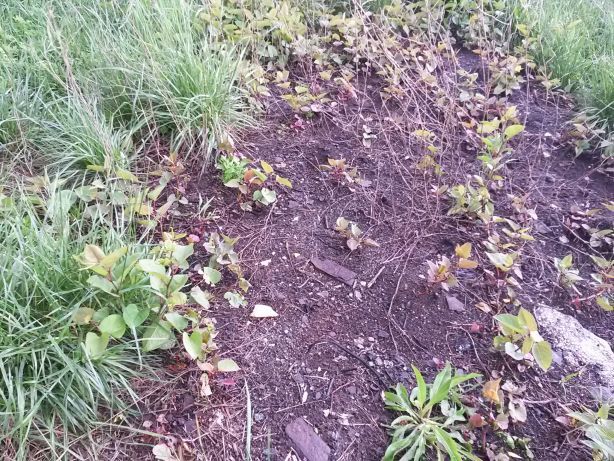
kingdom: Plantae
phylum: Tracheophyta
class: Magnoliopsida
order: Caryophyllales
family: Polygonaceae
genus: Reynoutria
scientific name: Reynoutria japonica
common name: Japanese knotweed
